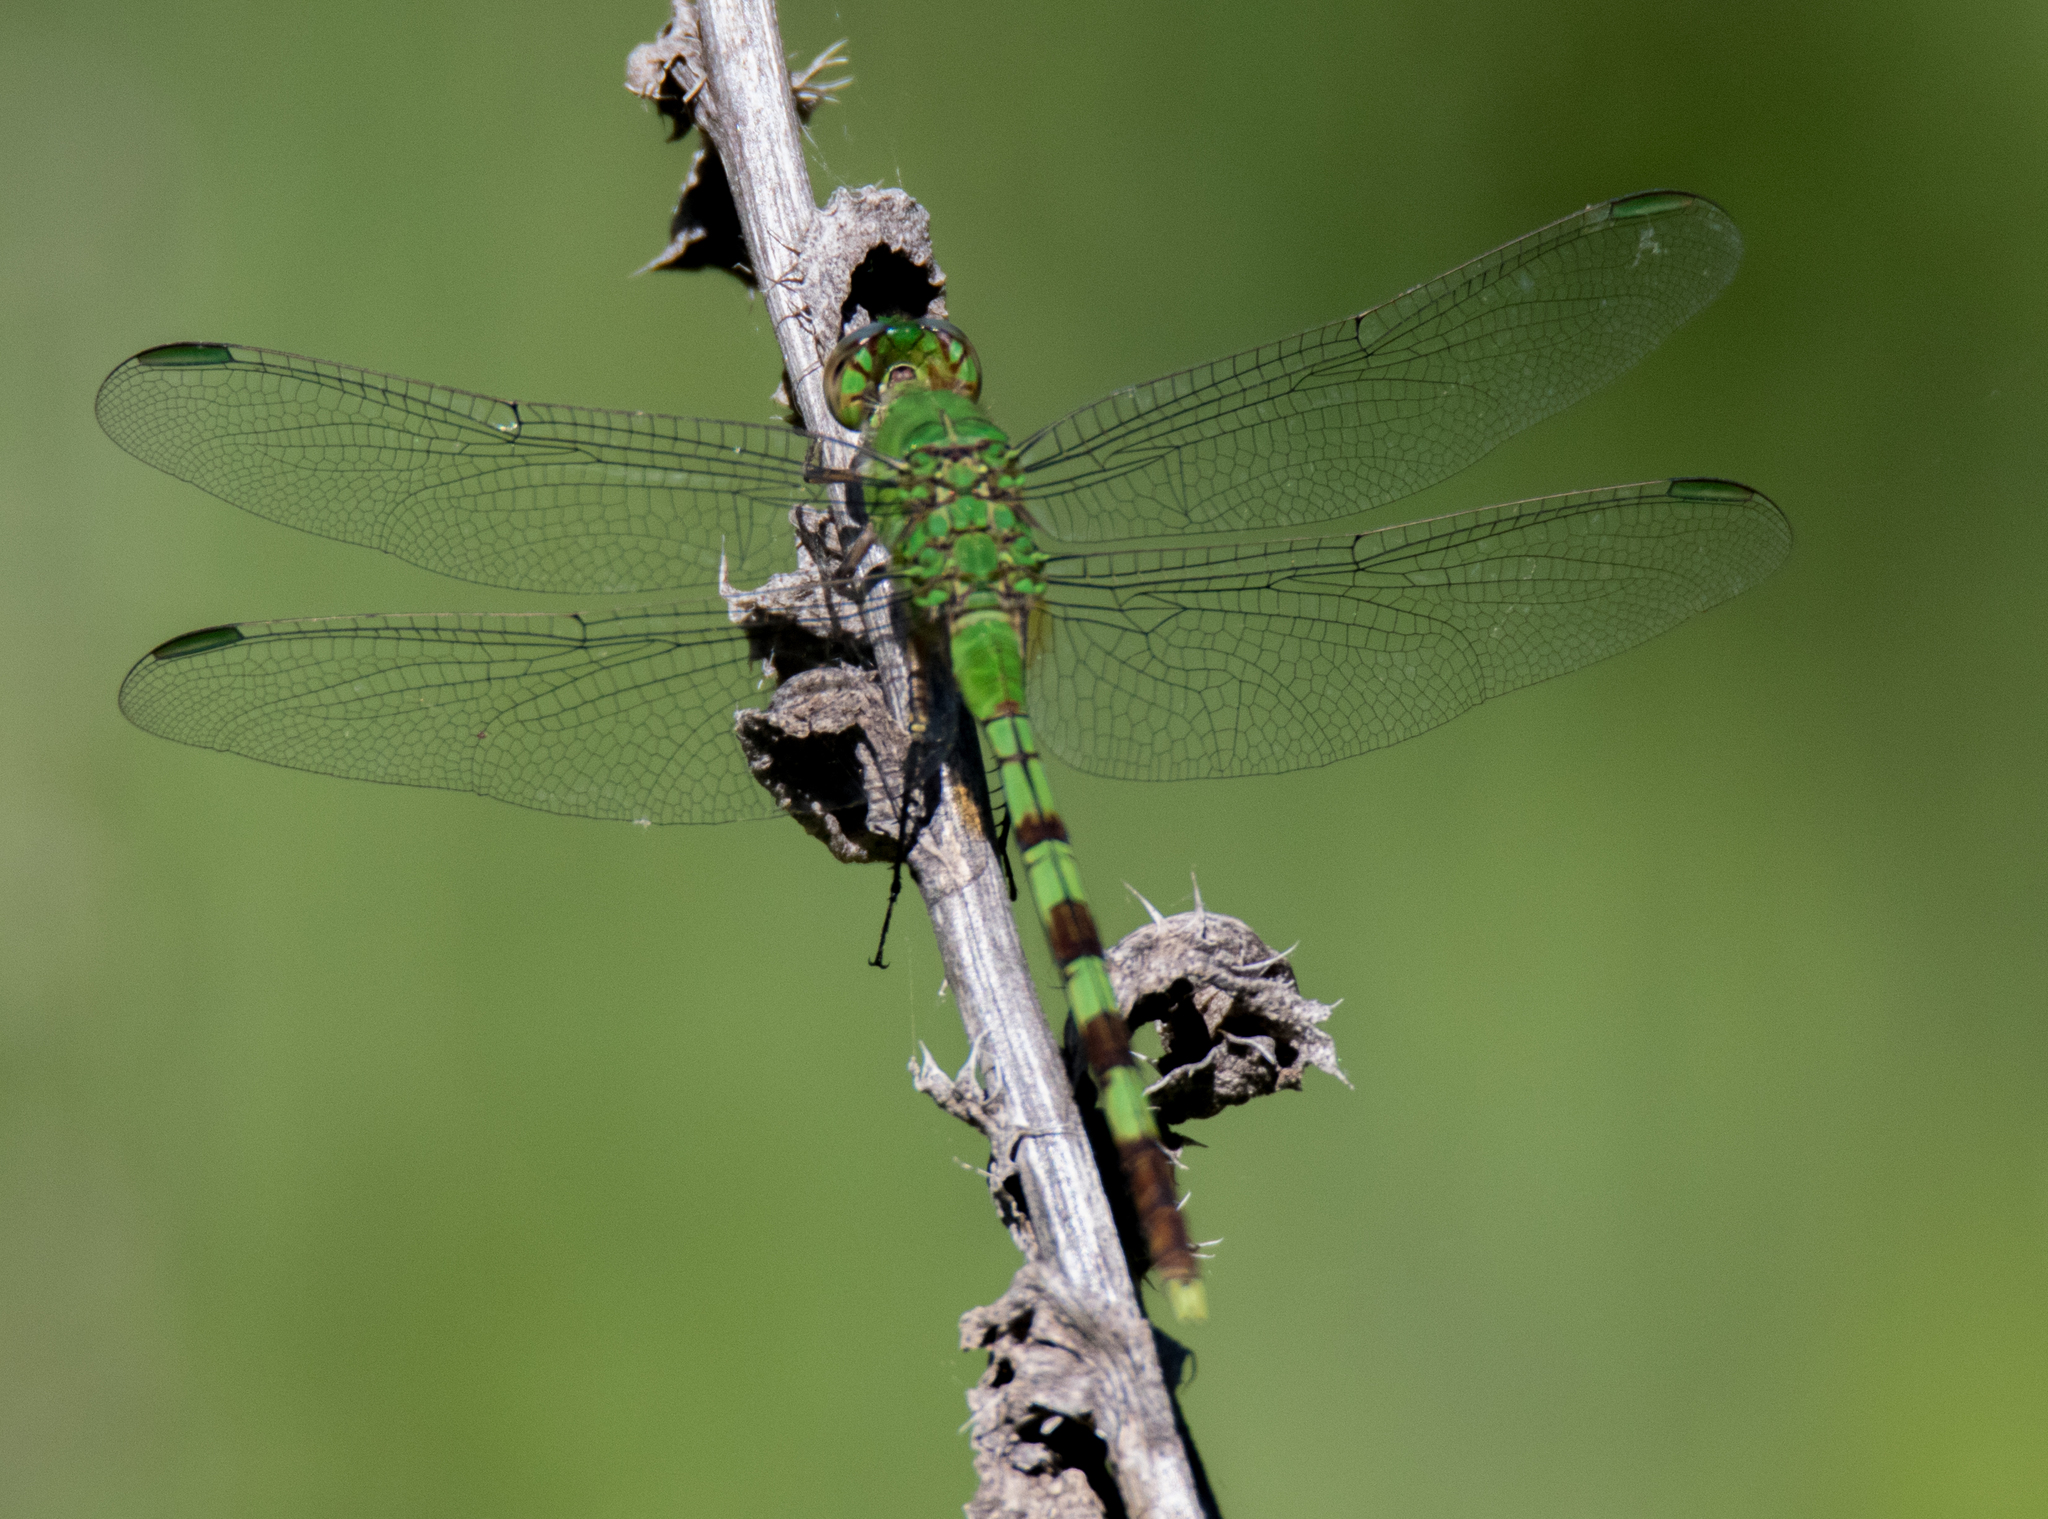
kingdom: Animalia
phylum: Arthropoda
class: Insecta
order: Odonata
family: Libellulidae
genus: Erythemis
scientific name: Erythemis vesiculosa
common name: Great pondhawk
